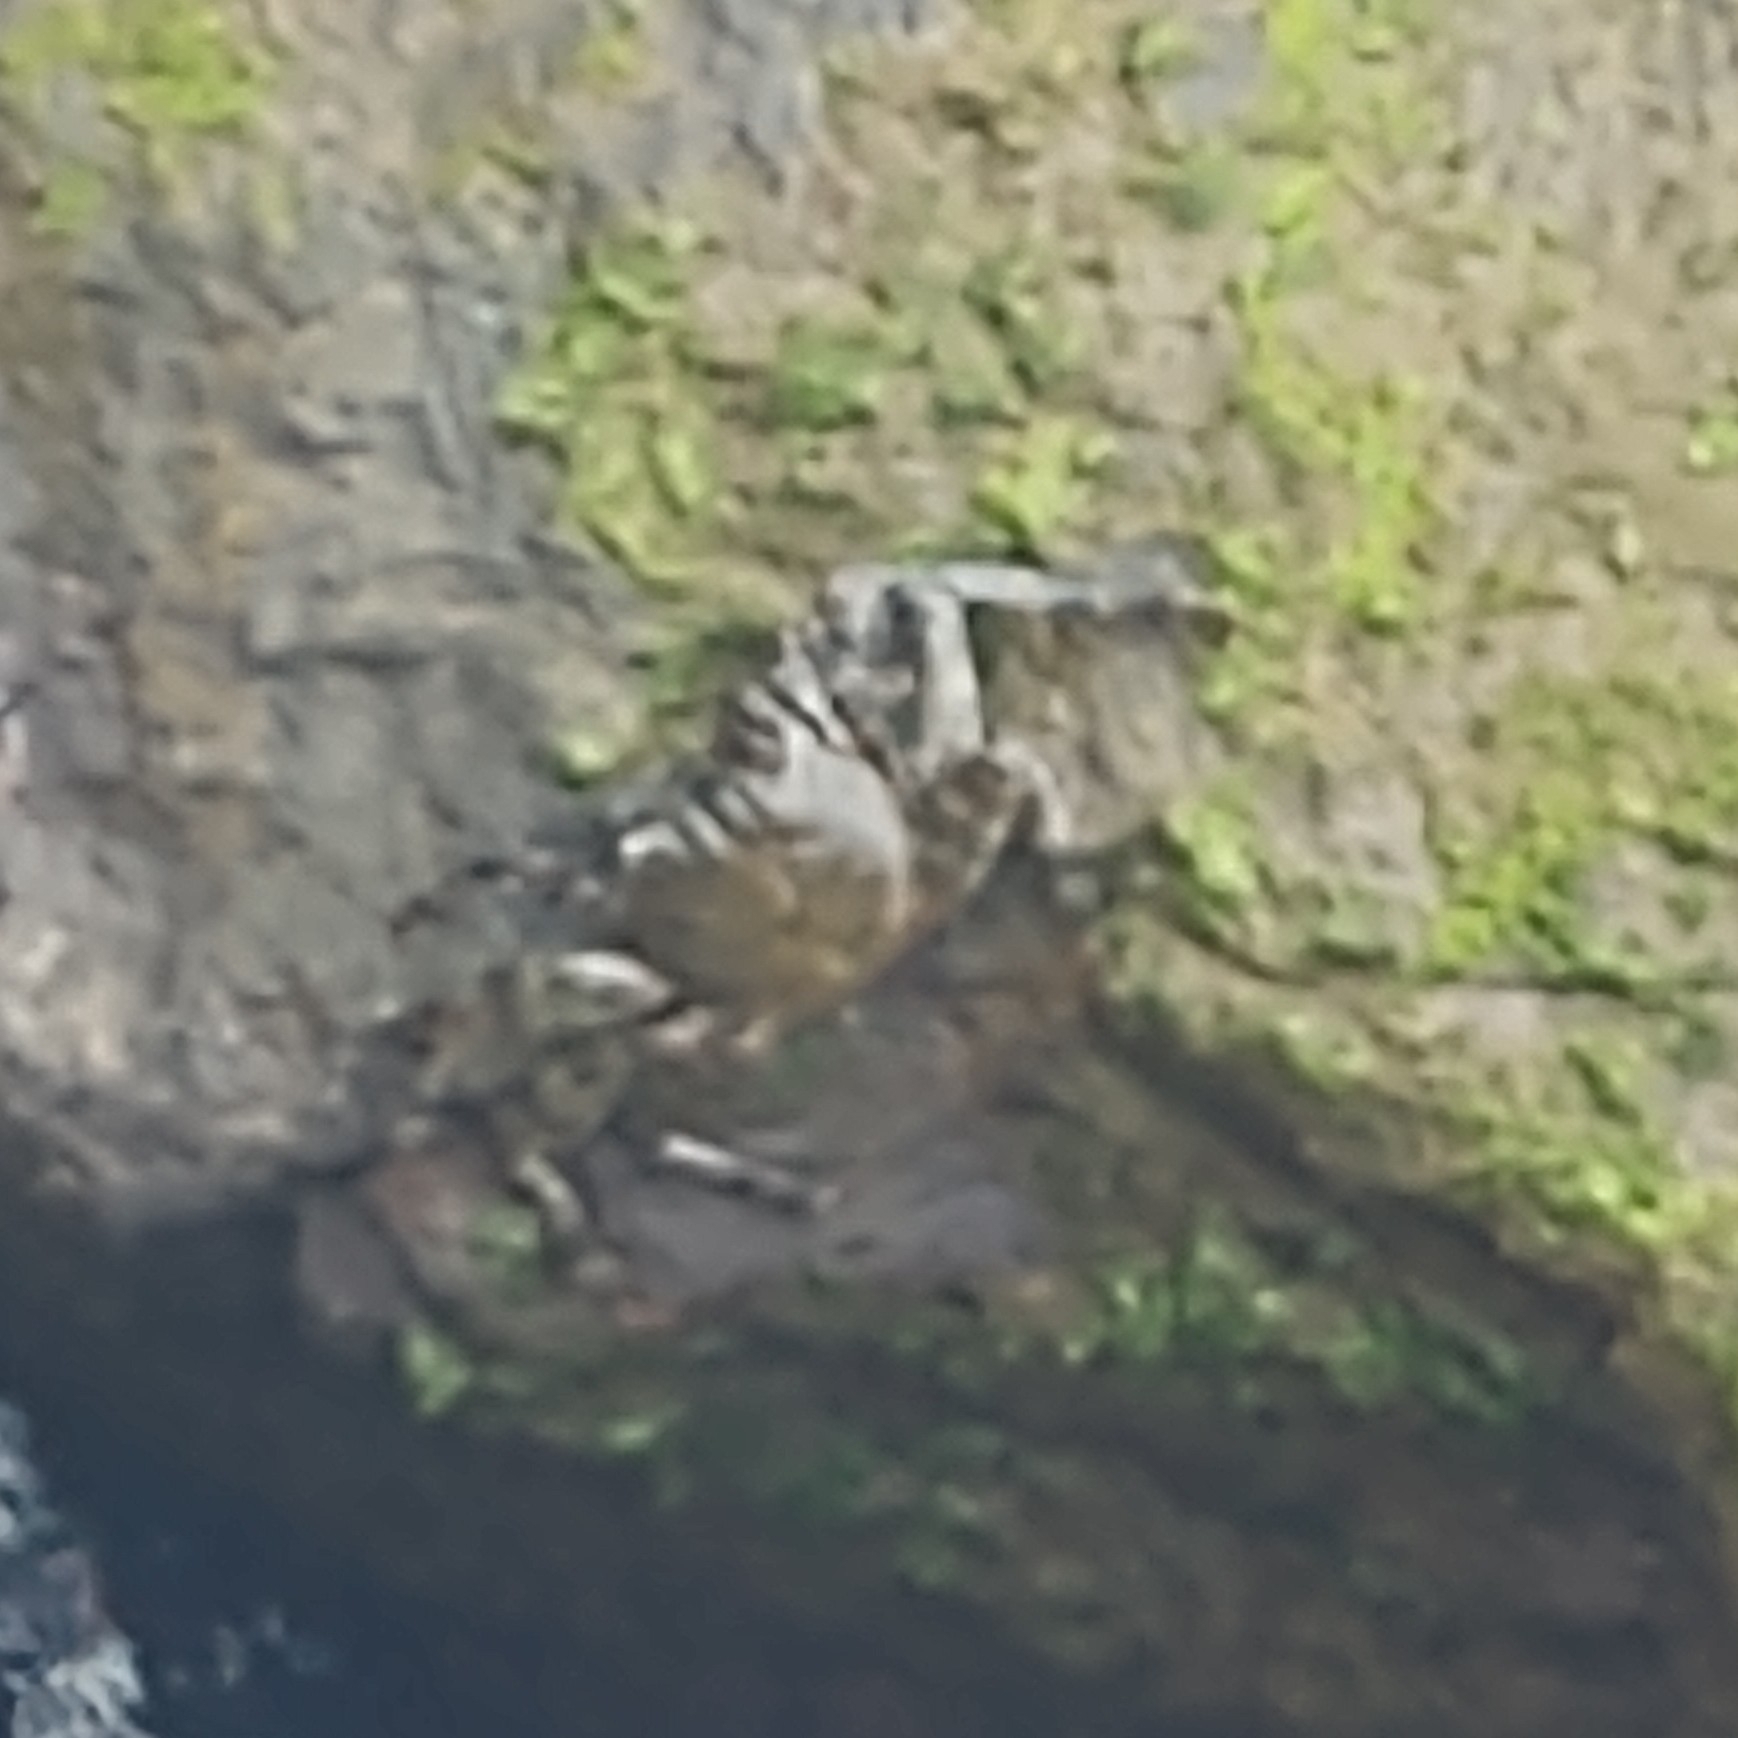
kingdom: Animalia
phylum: Arthropoda
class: Malacostraca
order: Decapoda
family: Grapsidae
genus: Grapsus
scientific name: Grapsus adscensionis
